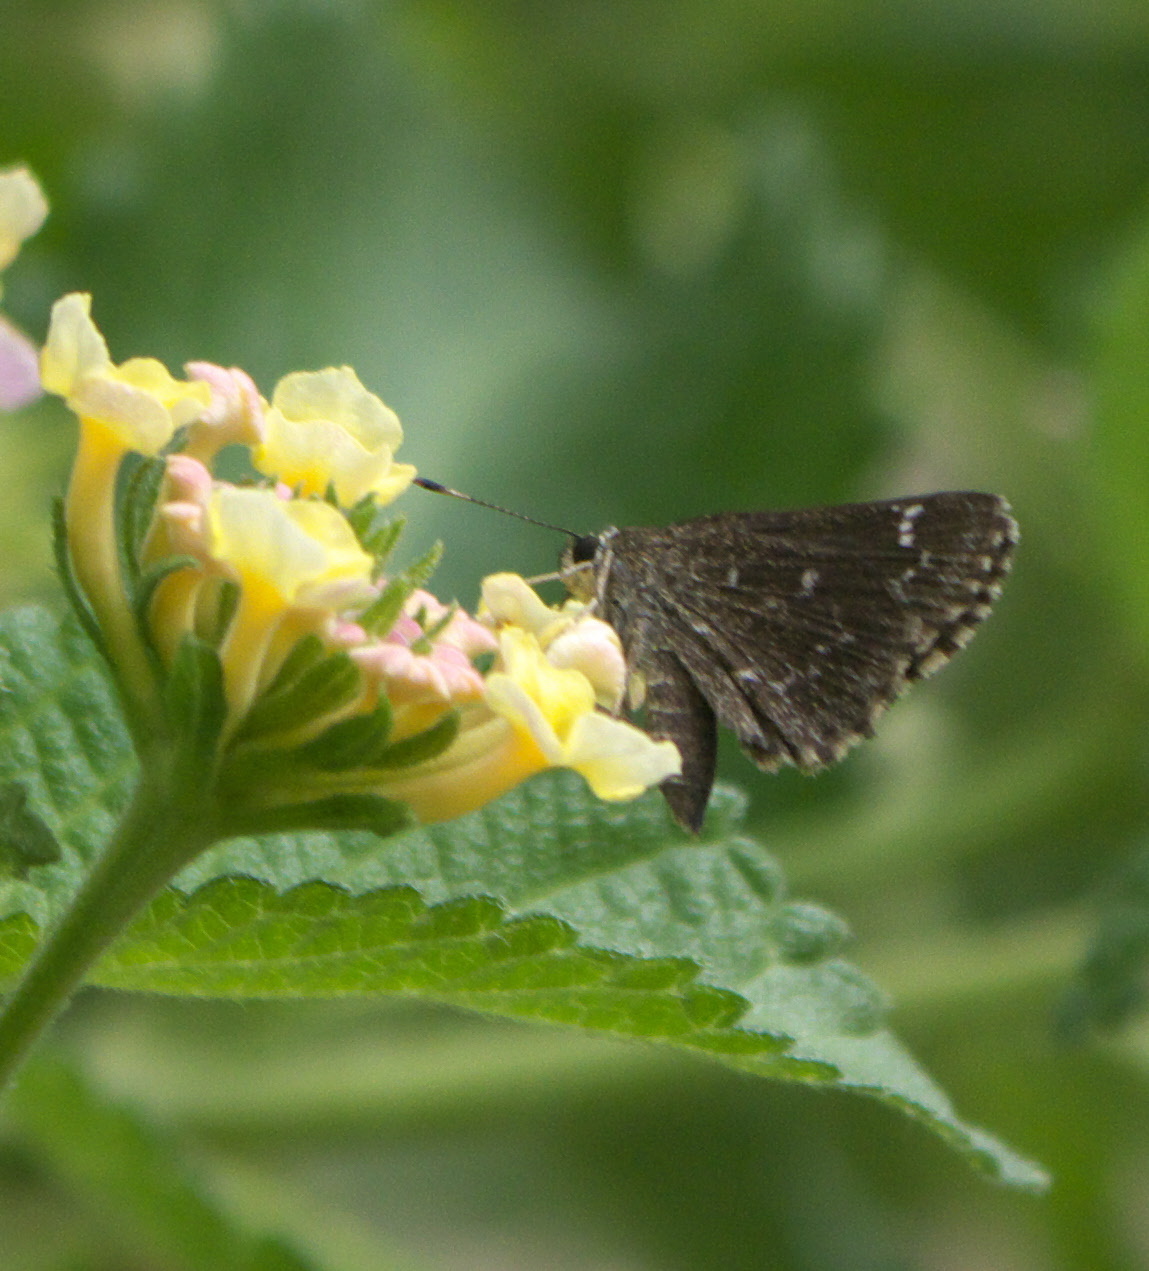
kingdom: Animalia
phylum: Arthropoda
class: Insecta
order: Lepidoptera
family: Hesperiidae
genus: Mastor
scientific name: Mastor celia
